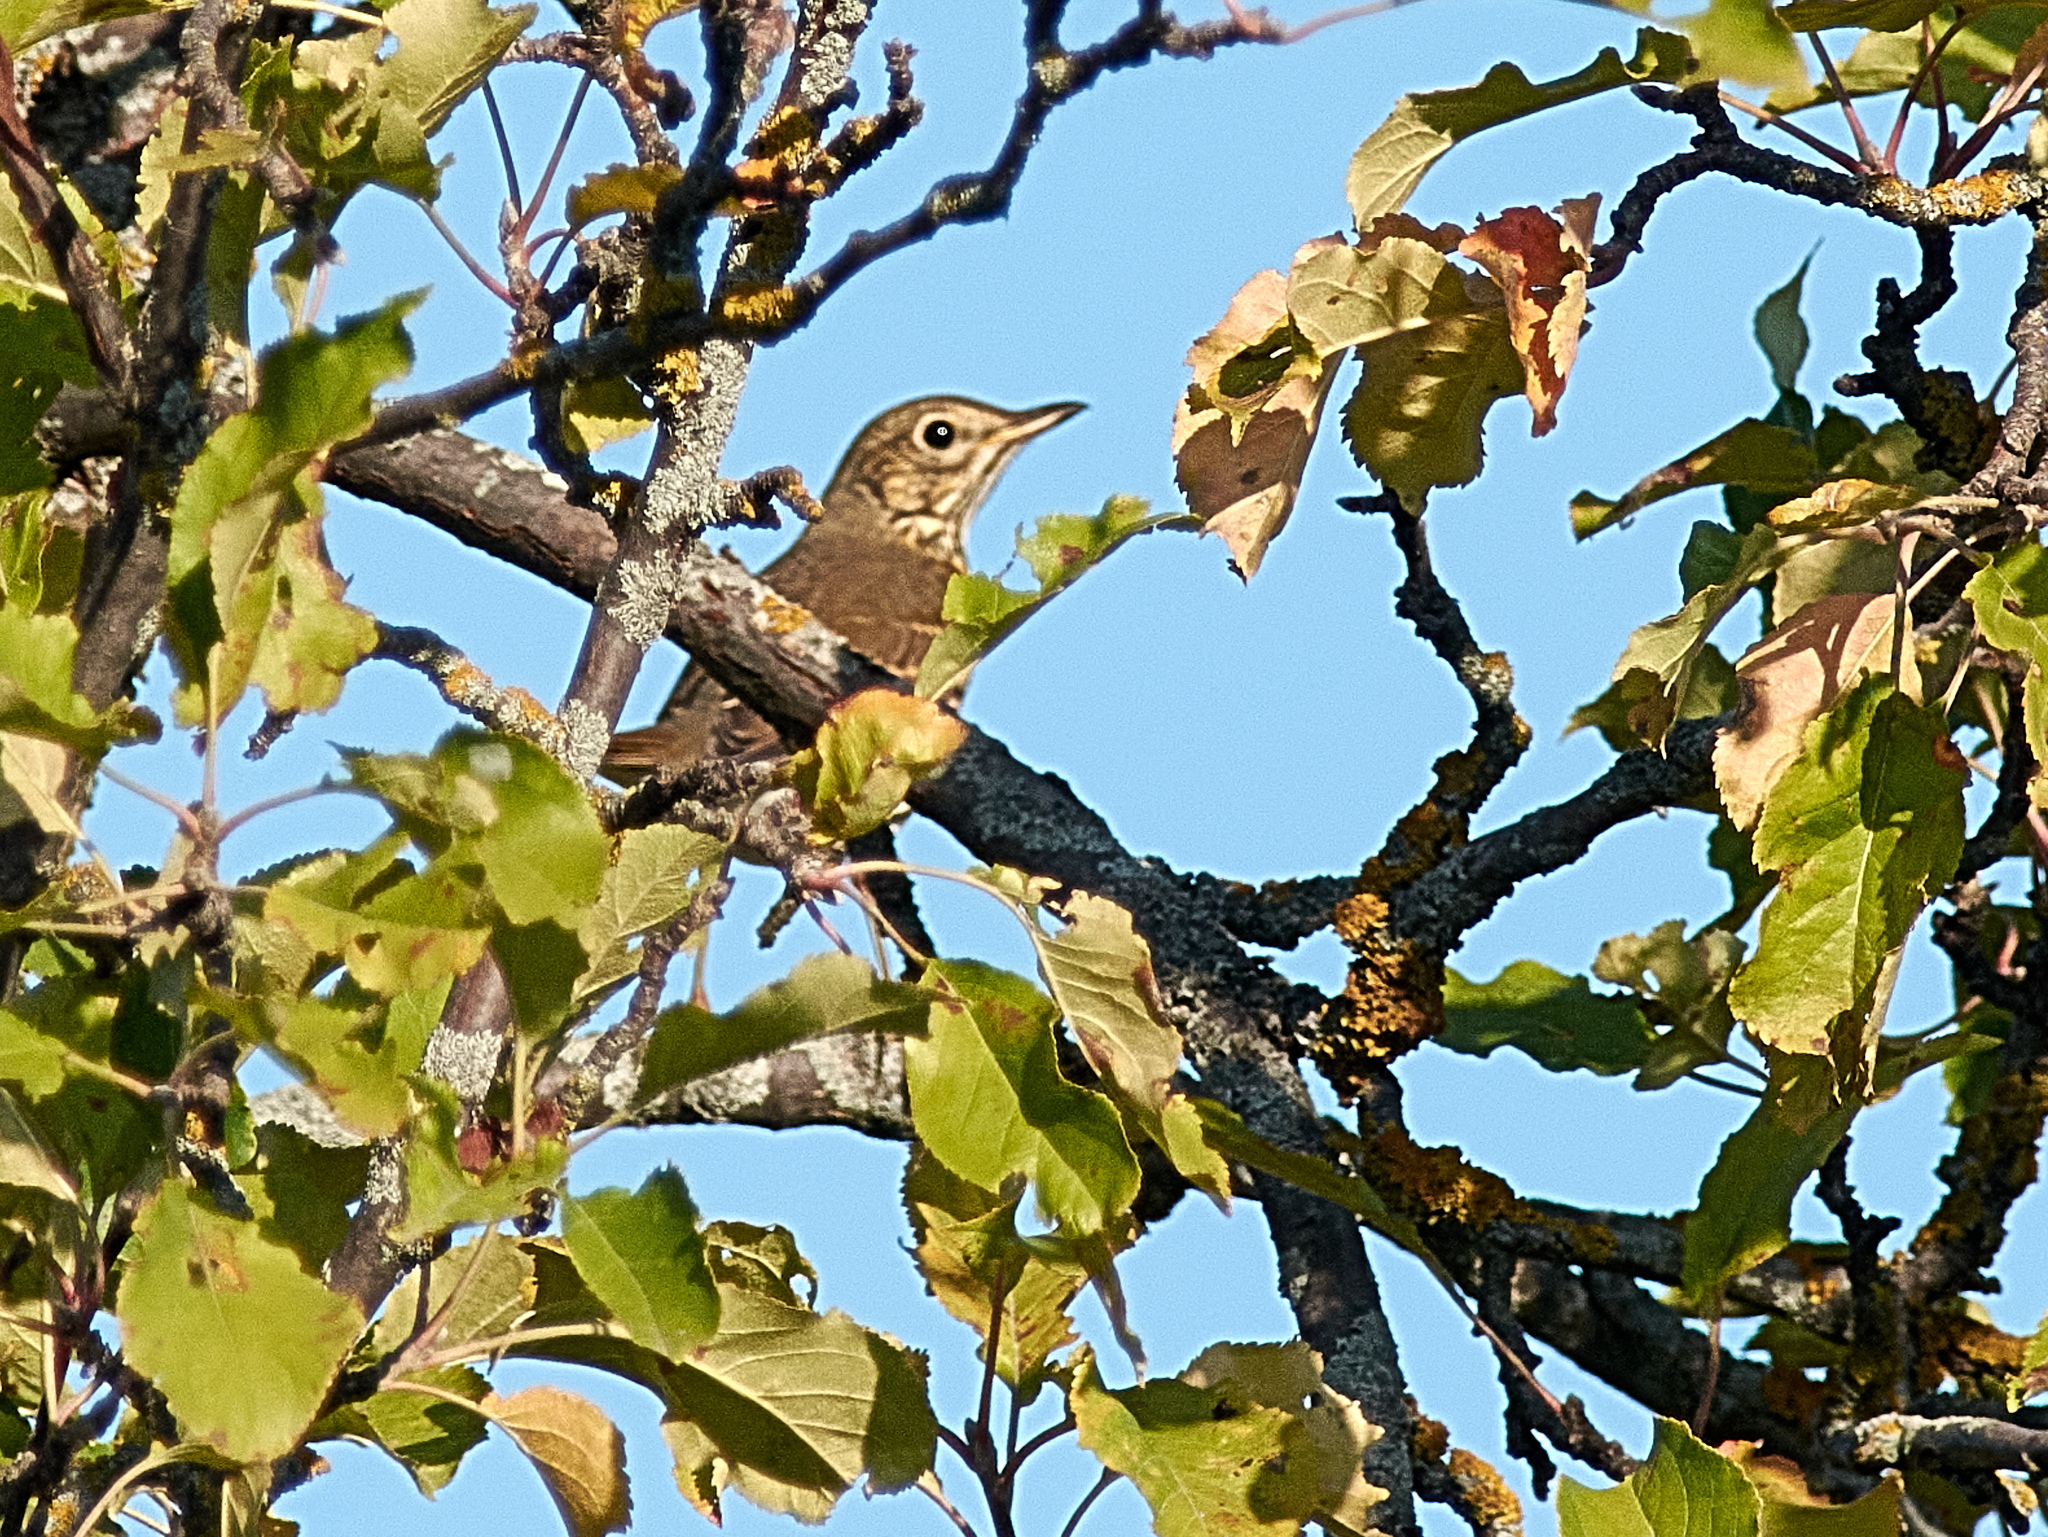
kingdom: Animalia
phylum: Chordata
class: Aves
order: Passeriformes
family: Turdidae
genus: Turdus
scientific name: Turdus philomelos
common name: Song thrush
